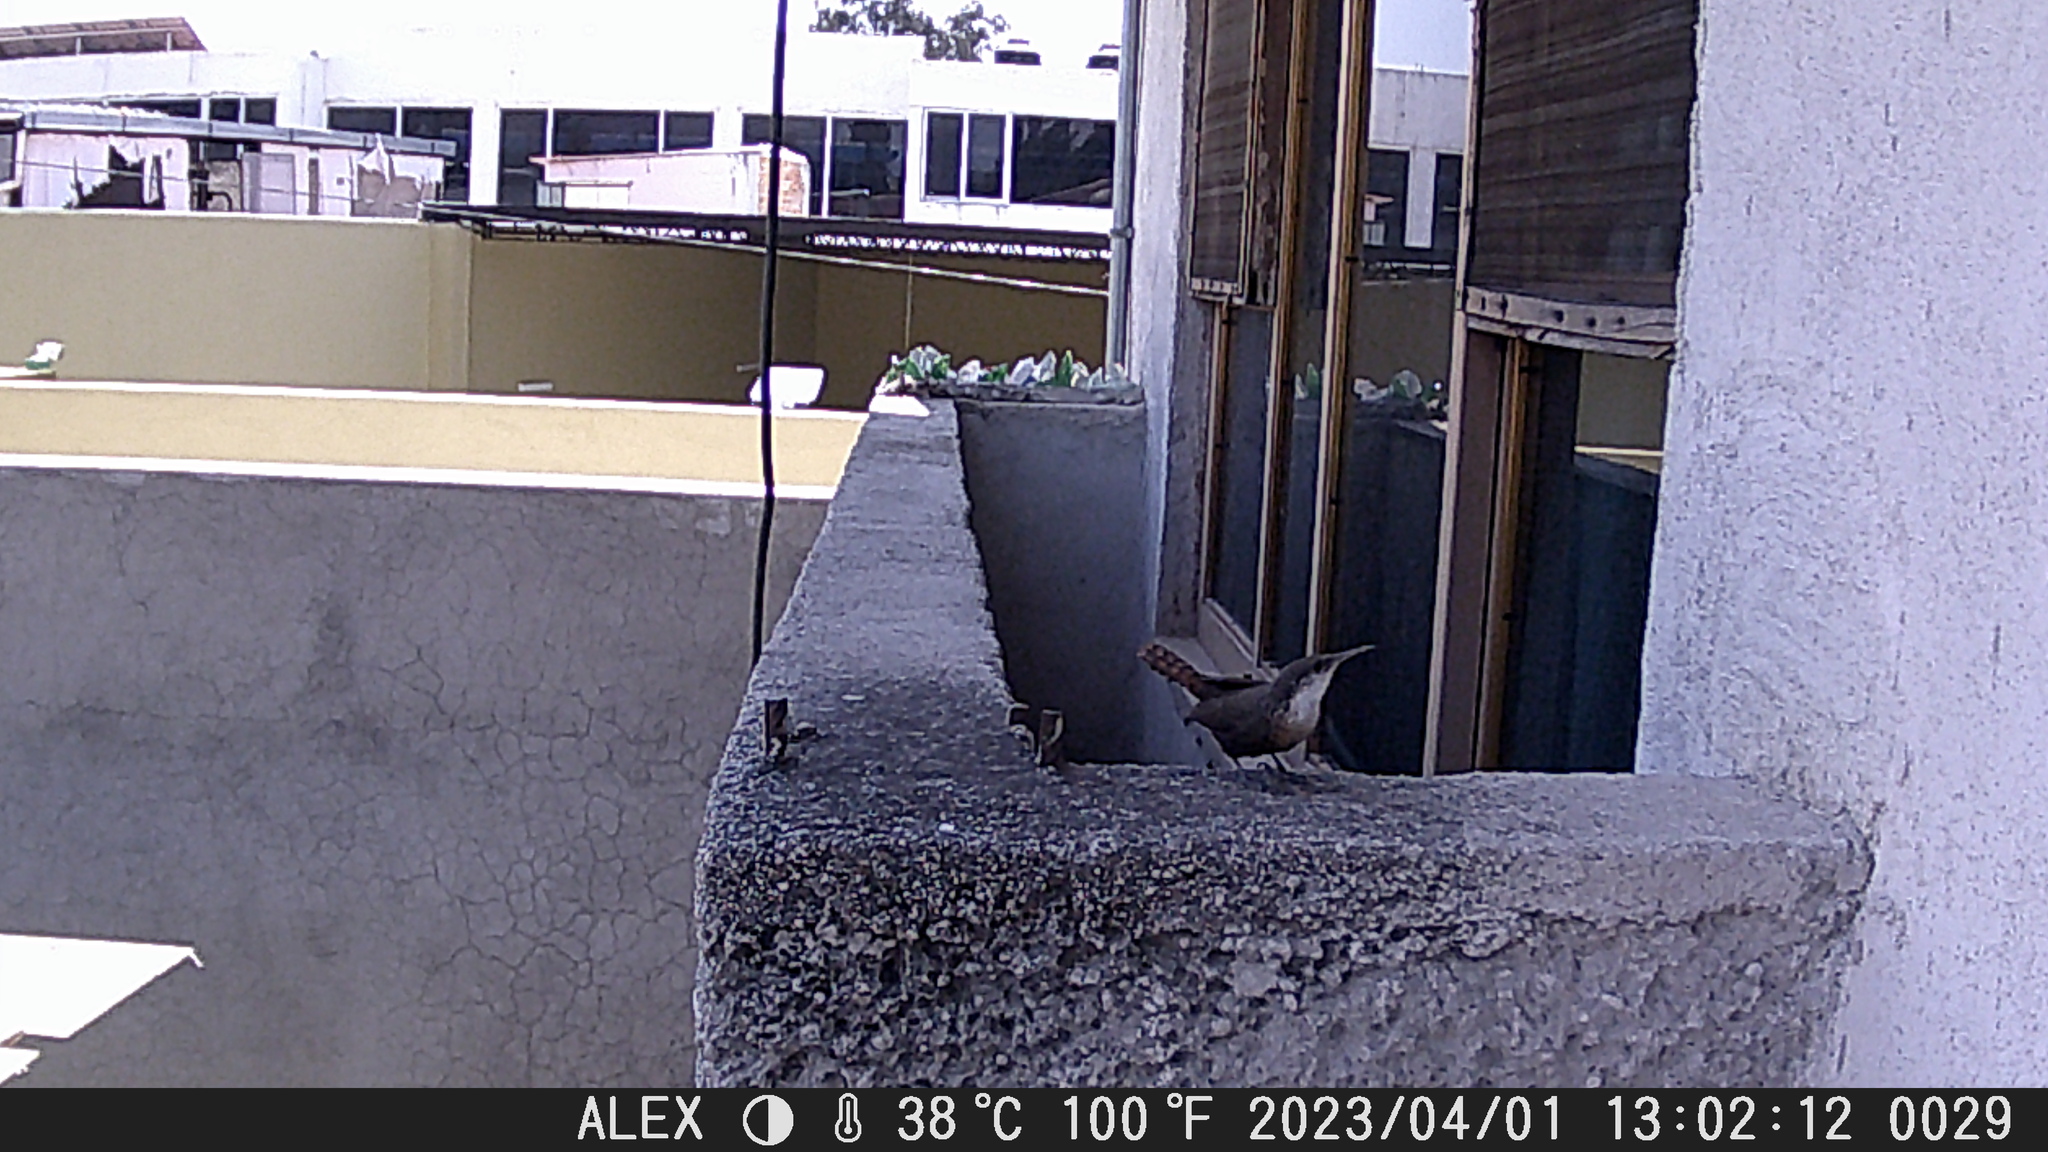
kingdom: Animalia
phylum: Chordata
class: Aves
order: Passeriformes
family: Troglodytidae
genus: Catherpes
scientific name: Catherpes mexicanus
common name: Canyon wren
